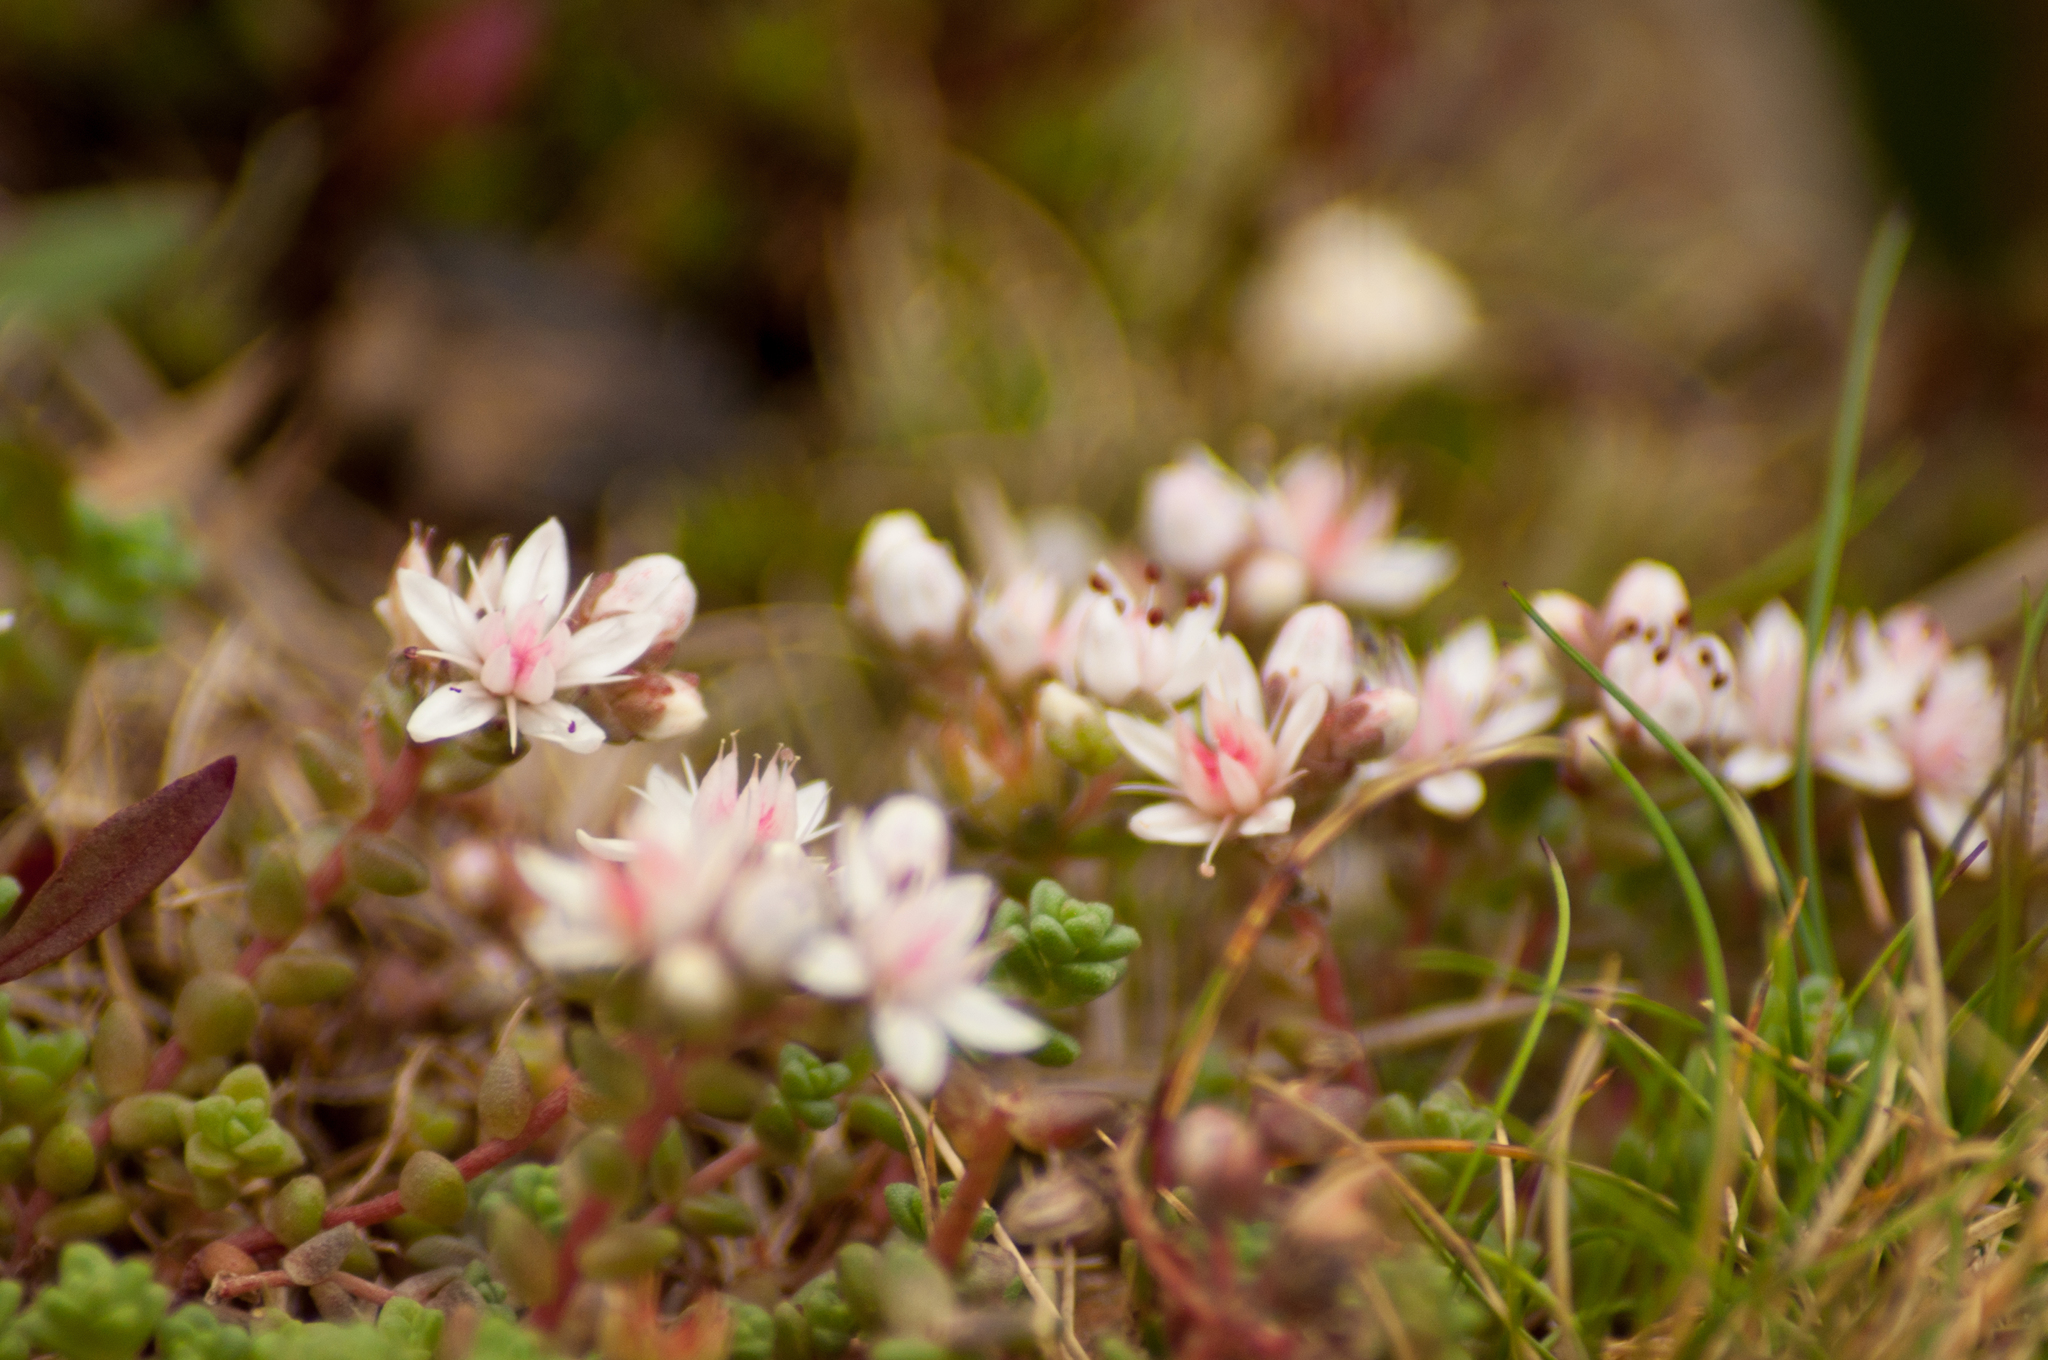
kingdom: Plantae
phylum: Tracheophyta
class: Magnoliopsida
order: Saxifragales
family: Crassulaceae
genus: Sedum
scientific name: Sedum anglicum
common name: English stonecrop
